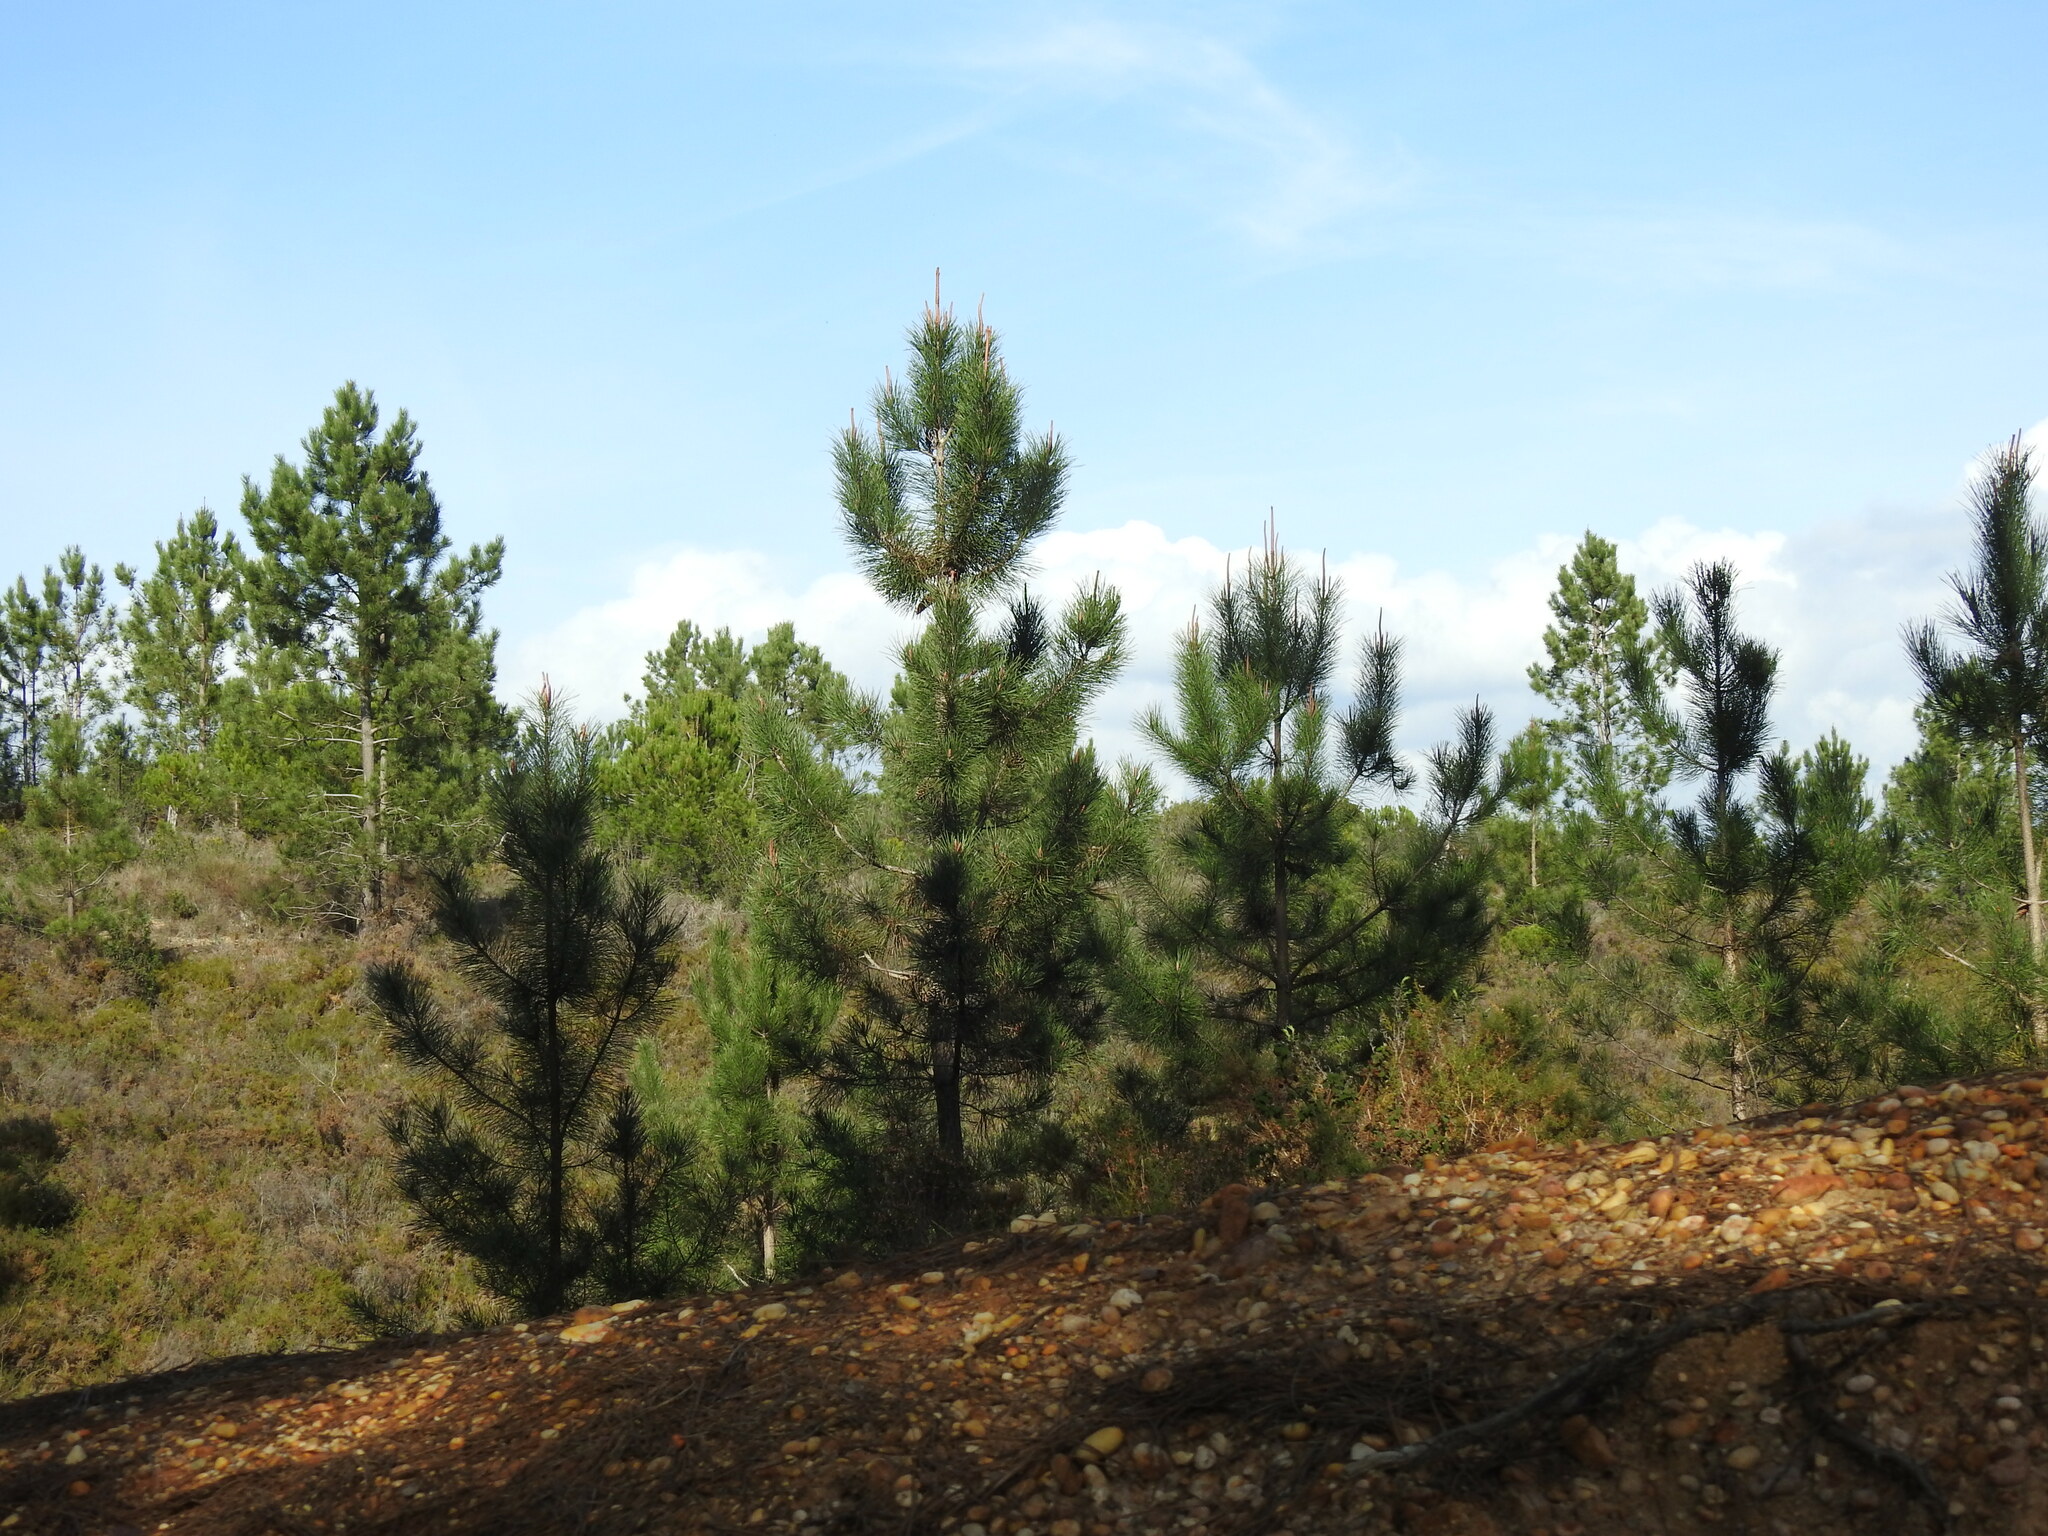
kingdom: Plantae
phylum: Tracheophyta
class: Pinopsida
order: Pinales
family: Pinaceae
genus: Pinus
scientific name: Pinus pinaster
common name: Maritime pine
